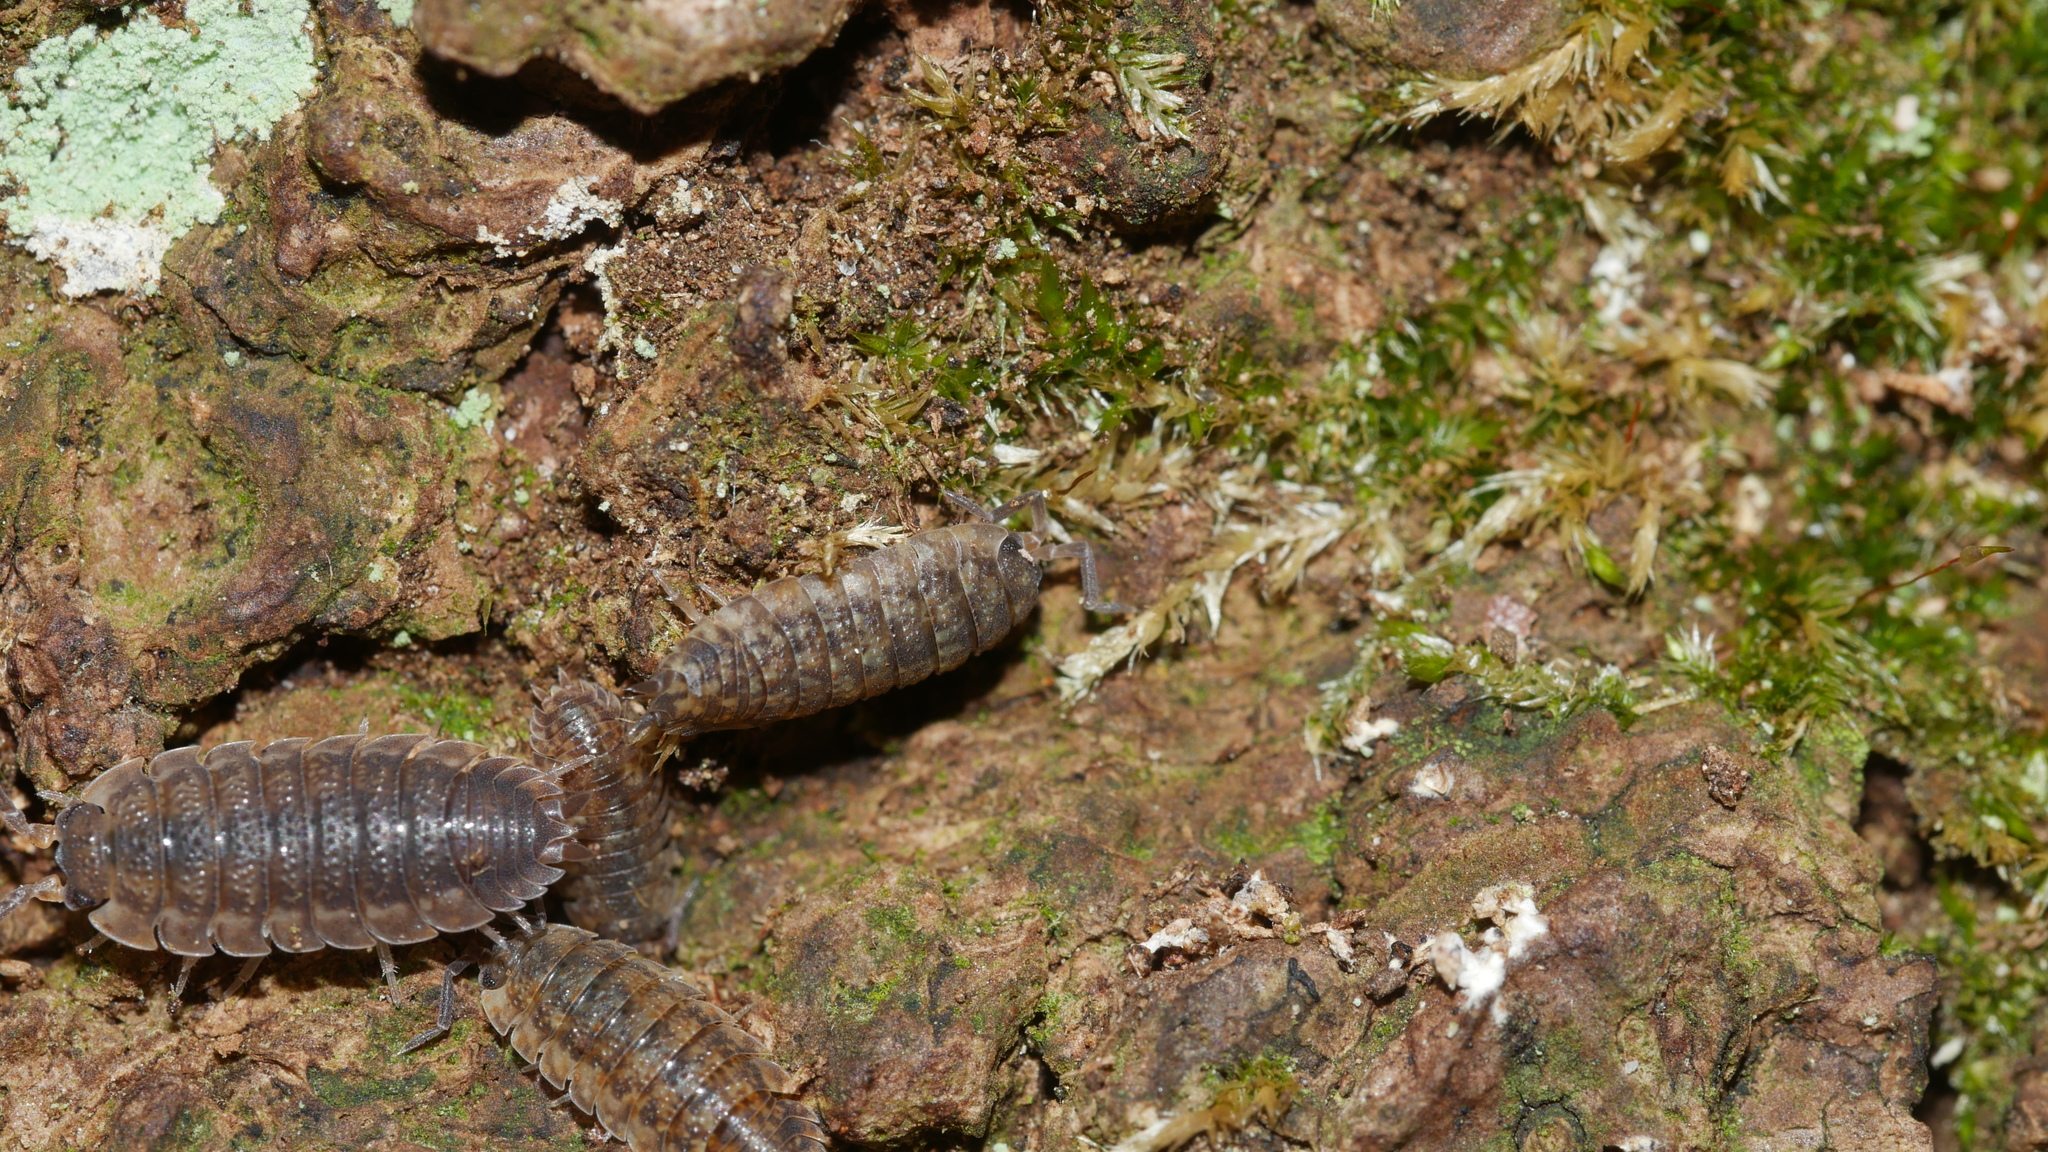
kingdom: Animalia
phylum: Arthropoda
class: Malacostraca
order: Isopoda
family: Porcellionidae
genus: Porcellio
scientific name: Porcellio scaber
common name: Common rough woodlouse
